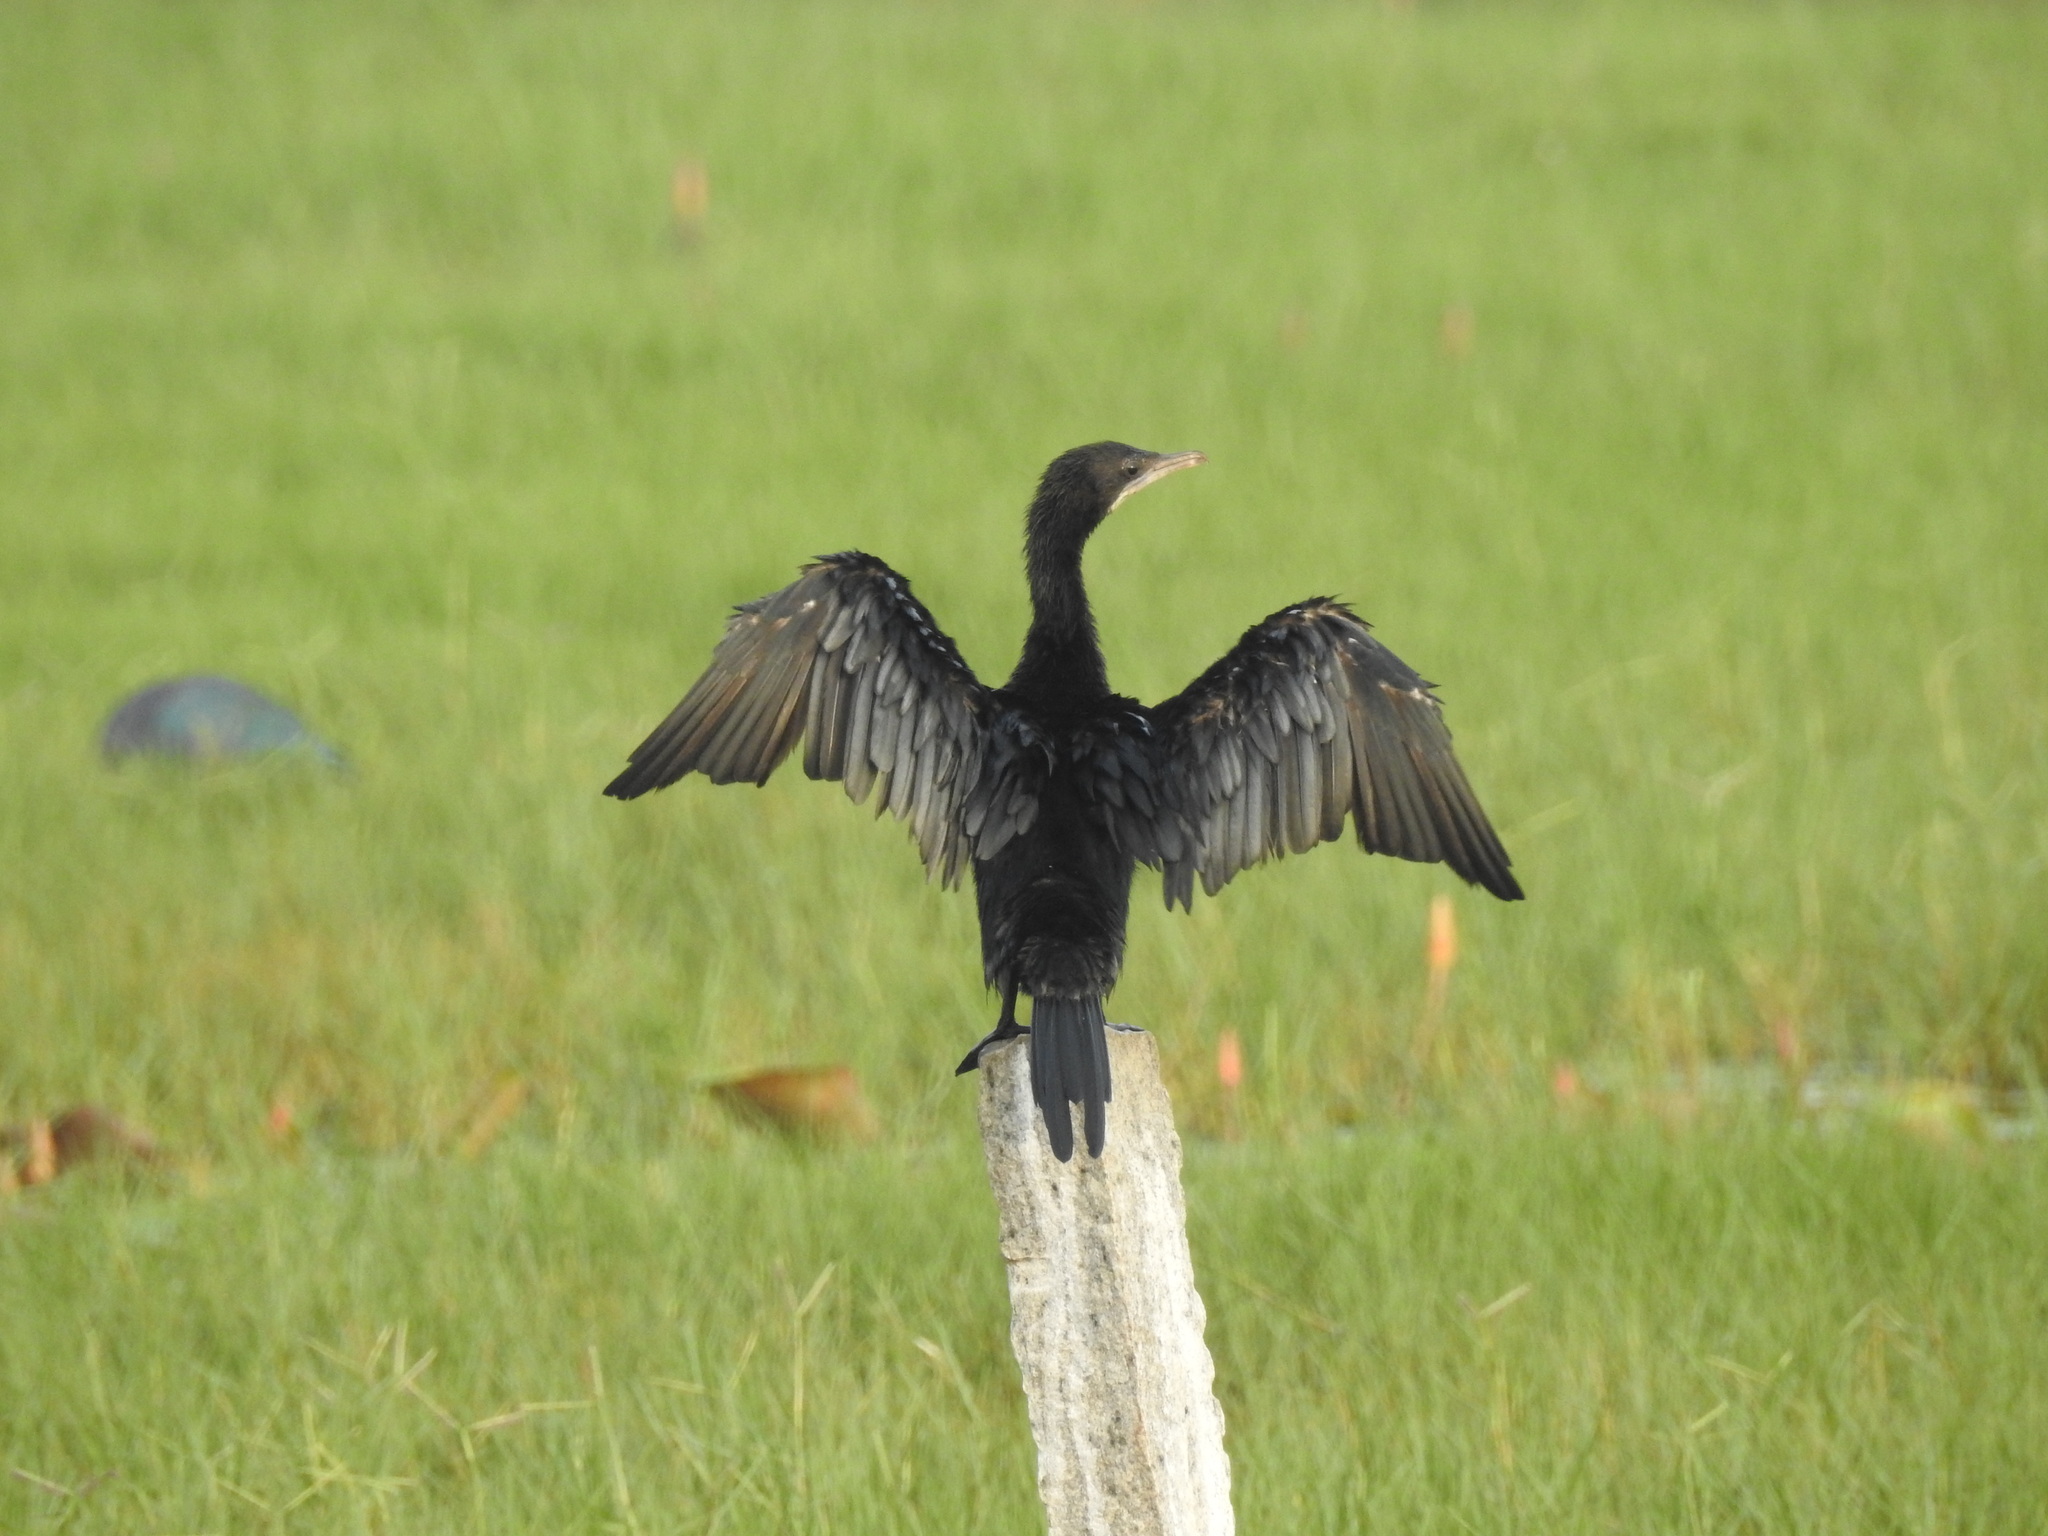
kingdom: Animalia
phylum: Chordata
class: Aves
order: Suliformes
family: Phalacrocoracidae
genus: Microcarbo
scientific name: Microcarbo niger
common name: Little cormorant
